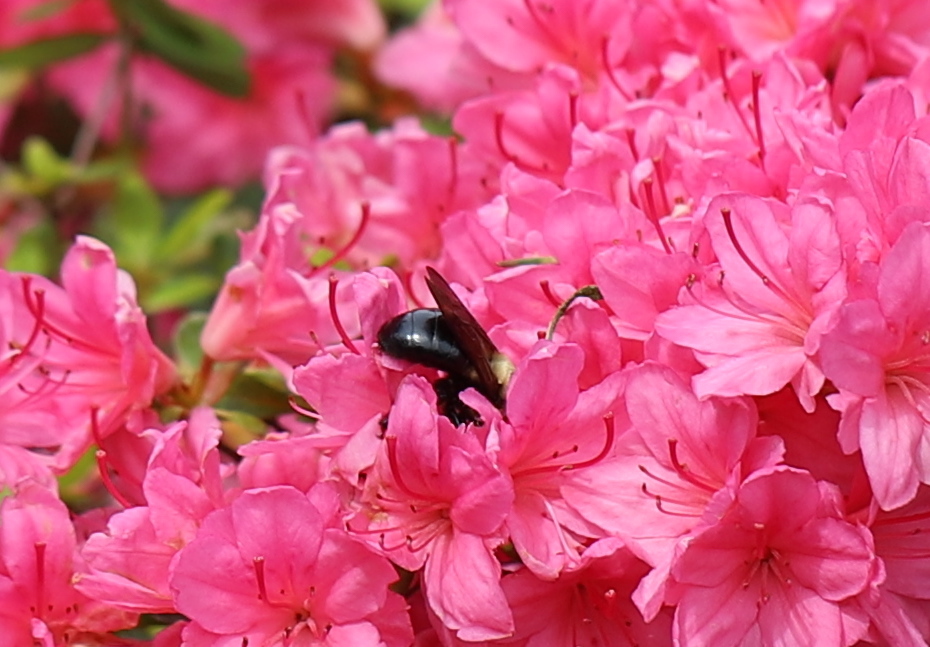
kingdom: Animalia
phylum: Arthropoda
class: Insecta
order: Hymenoptera
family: Apidae
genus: Xylocopa
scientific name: Xylocopa virginica
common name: Carpenter bee
